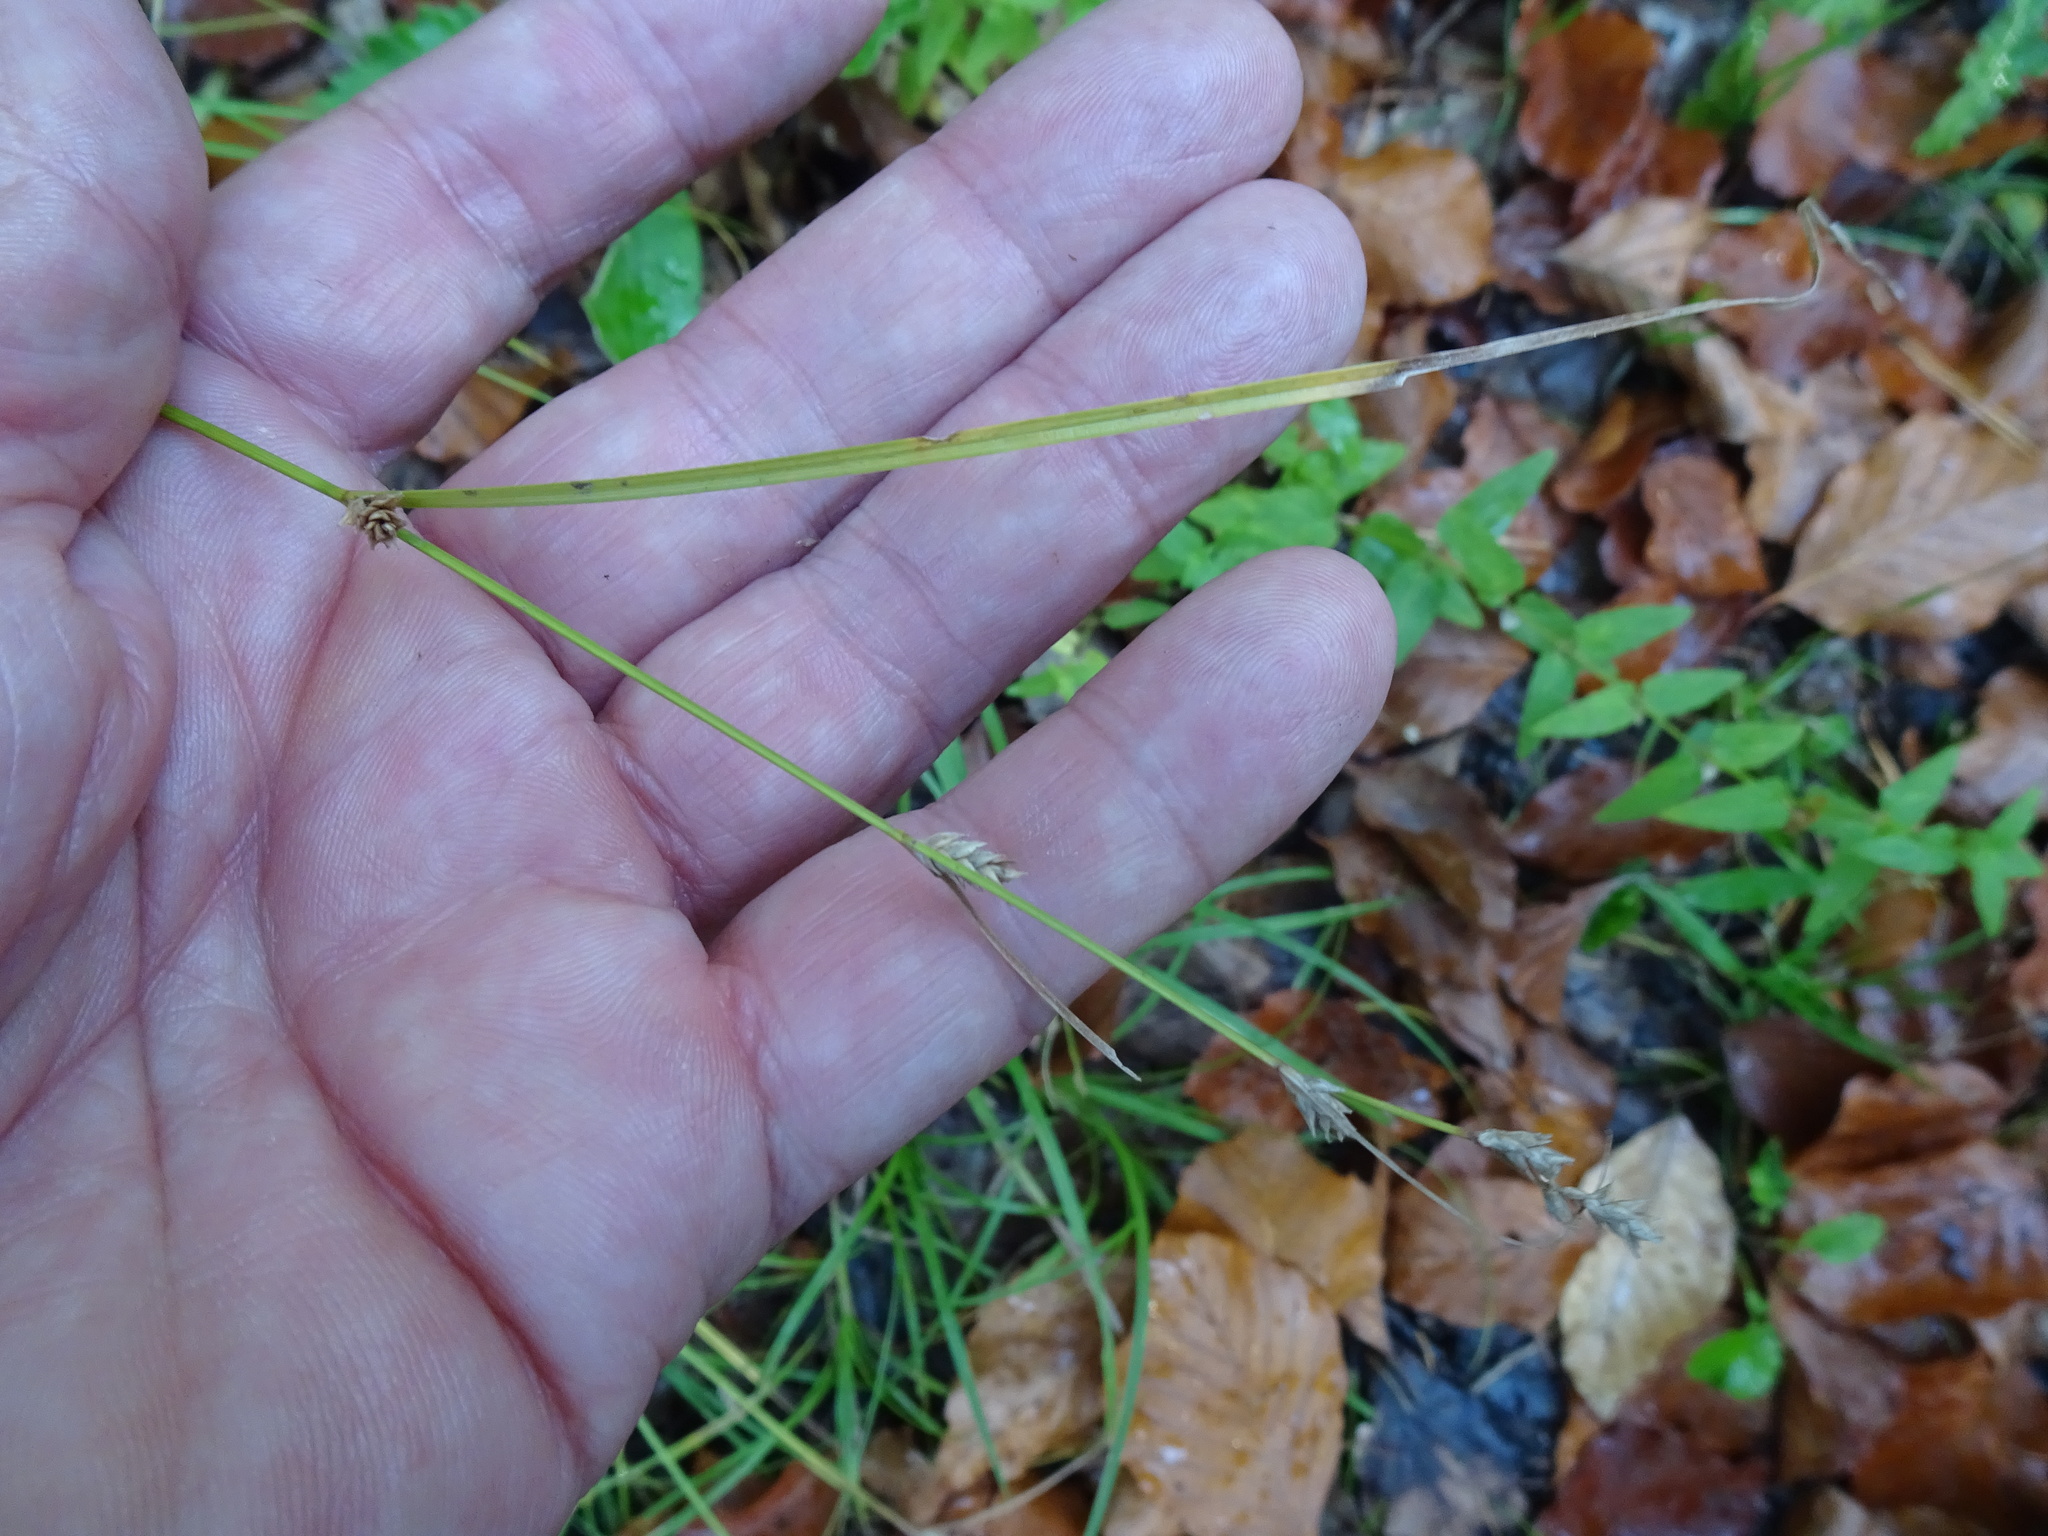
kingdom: Plantae
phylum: Tracheophyta
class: Liliopsida
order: Poales
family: Cyperaceae
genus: Carex
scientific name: Carex remota
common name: Remote sedge
